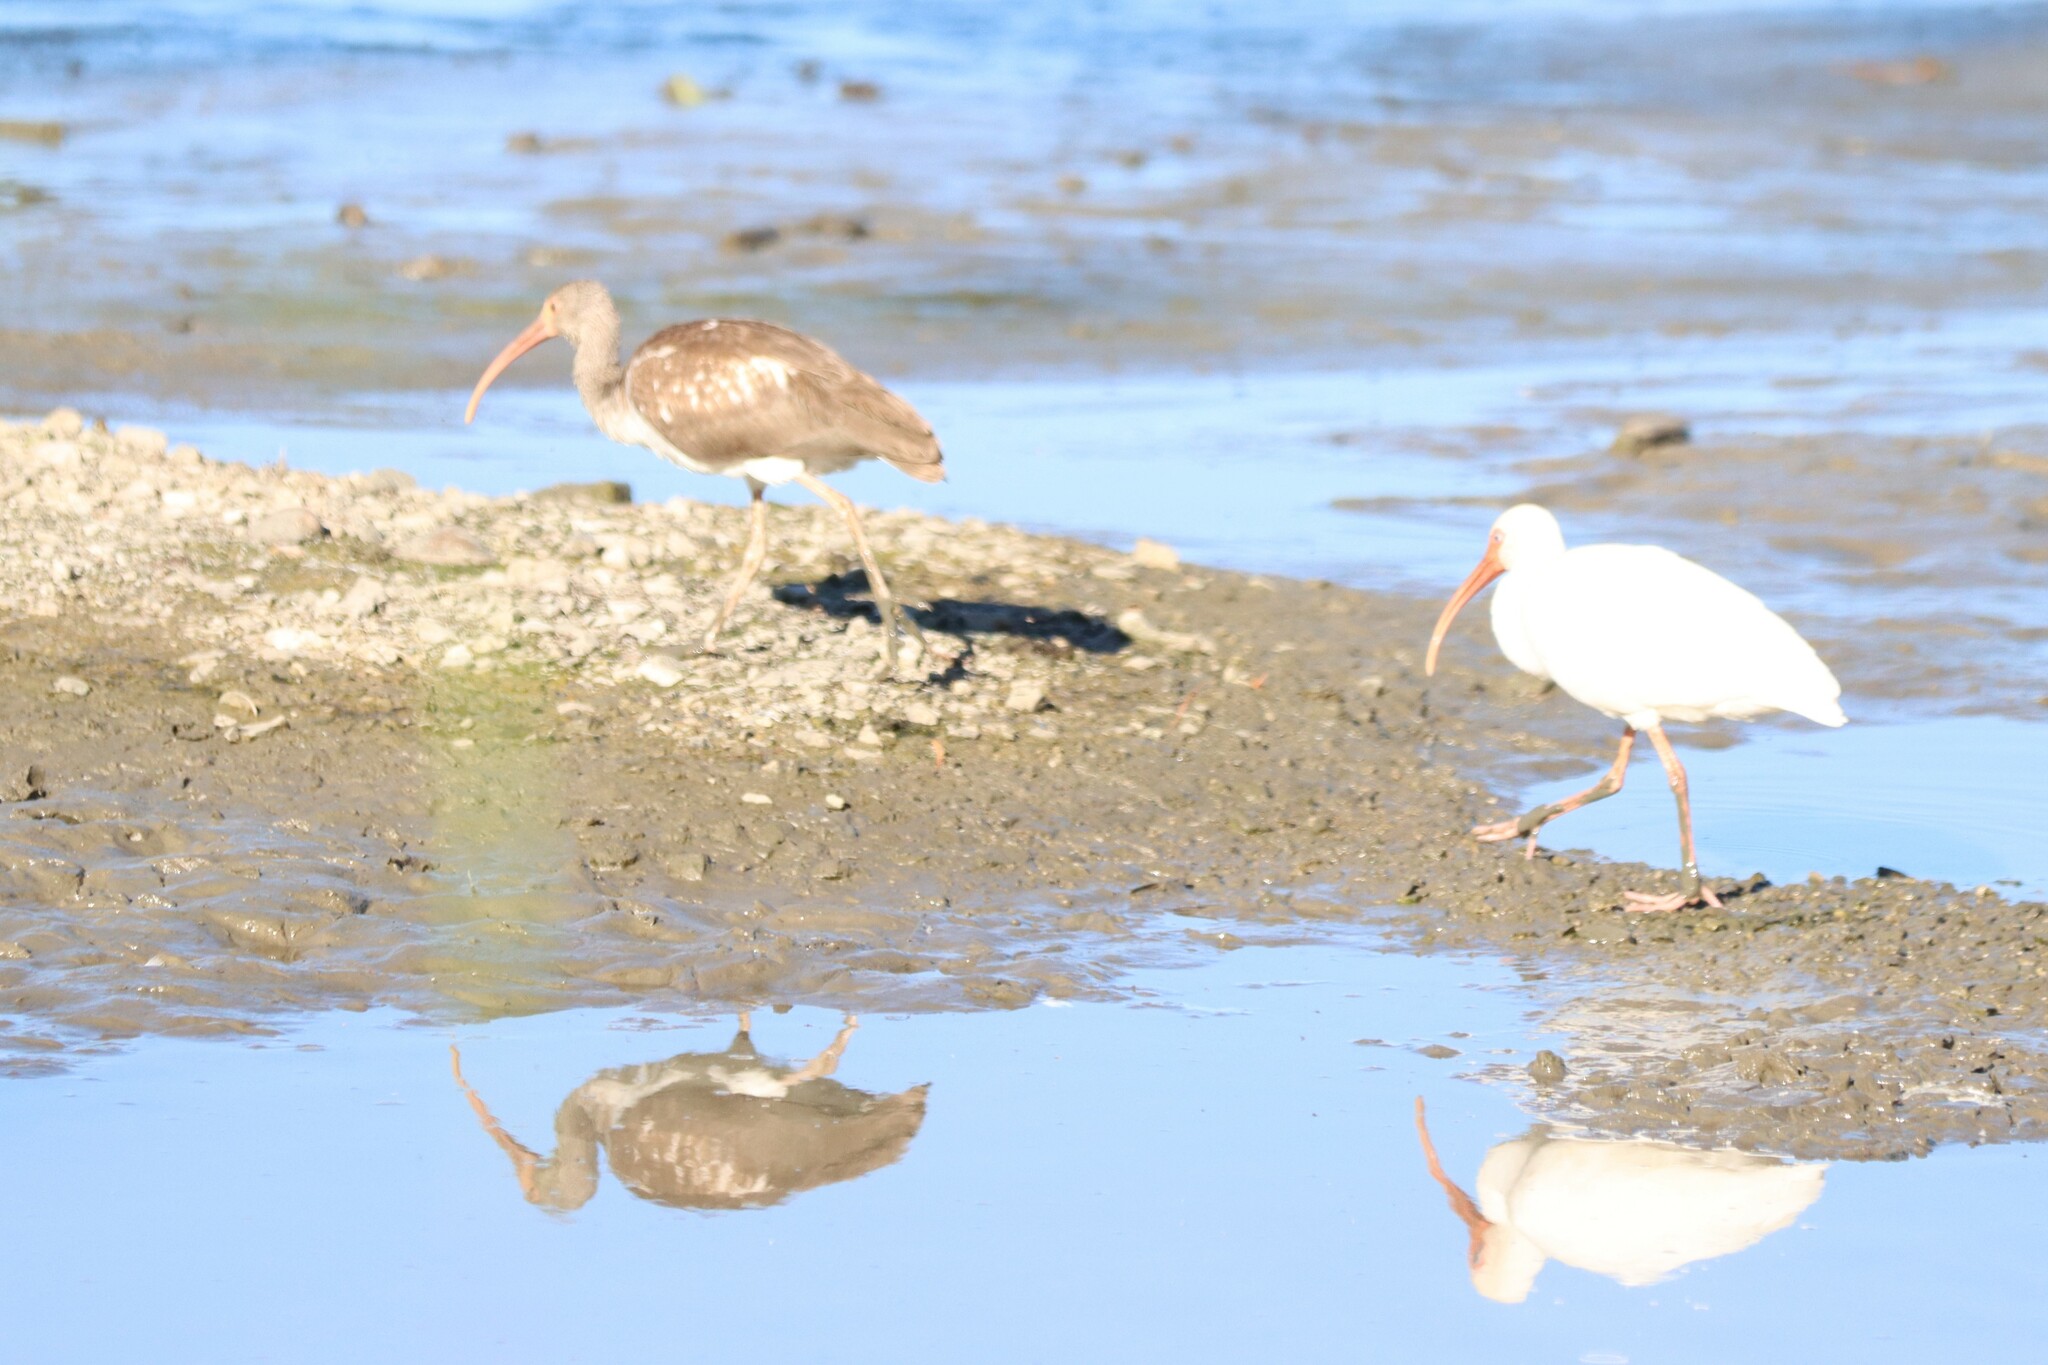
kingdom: Animalia
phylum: Chordata
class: Aves
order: Pelecaniformes
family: Threskiornithidae
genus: Eudocimus
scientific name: Eudocimus albus
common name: White ibis
